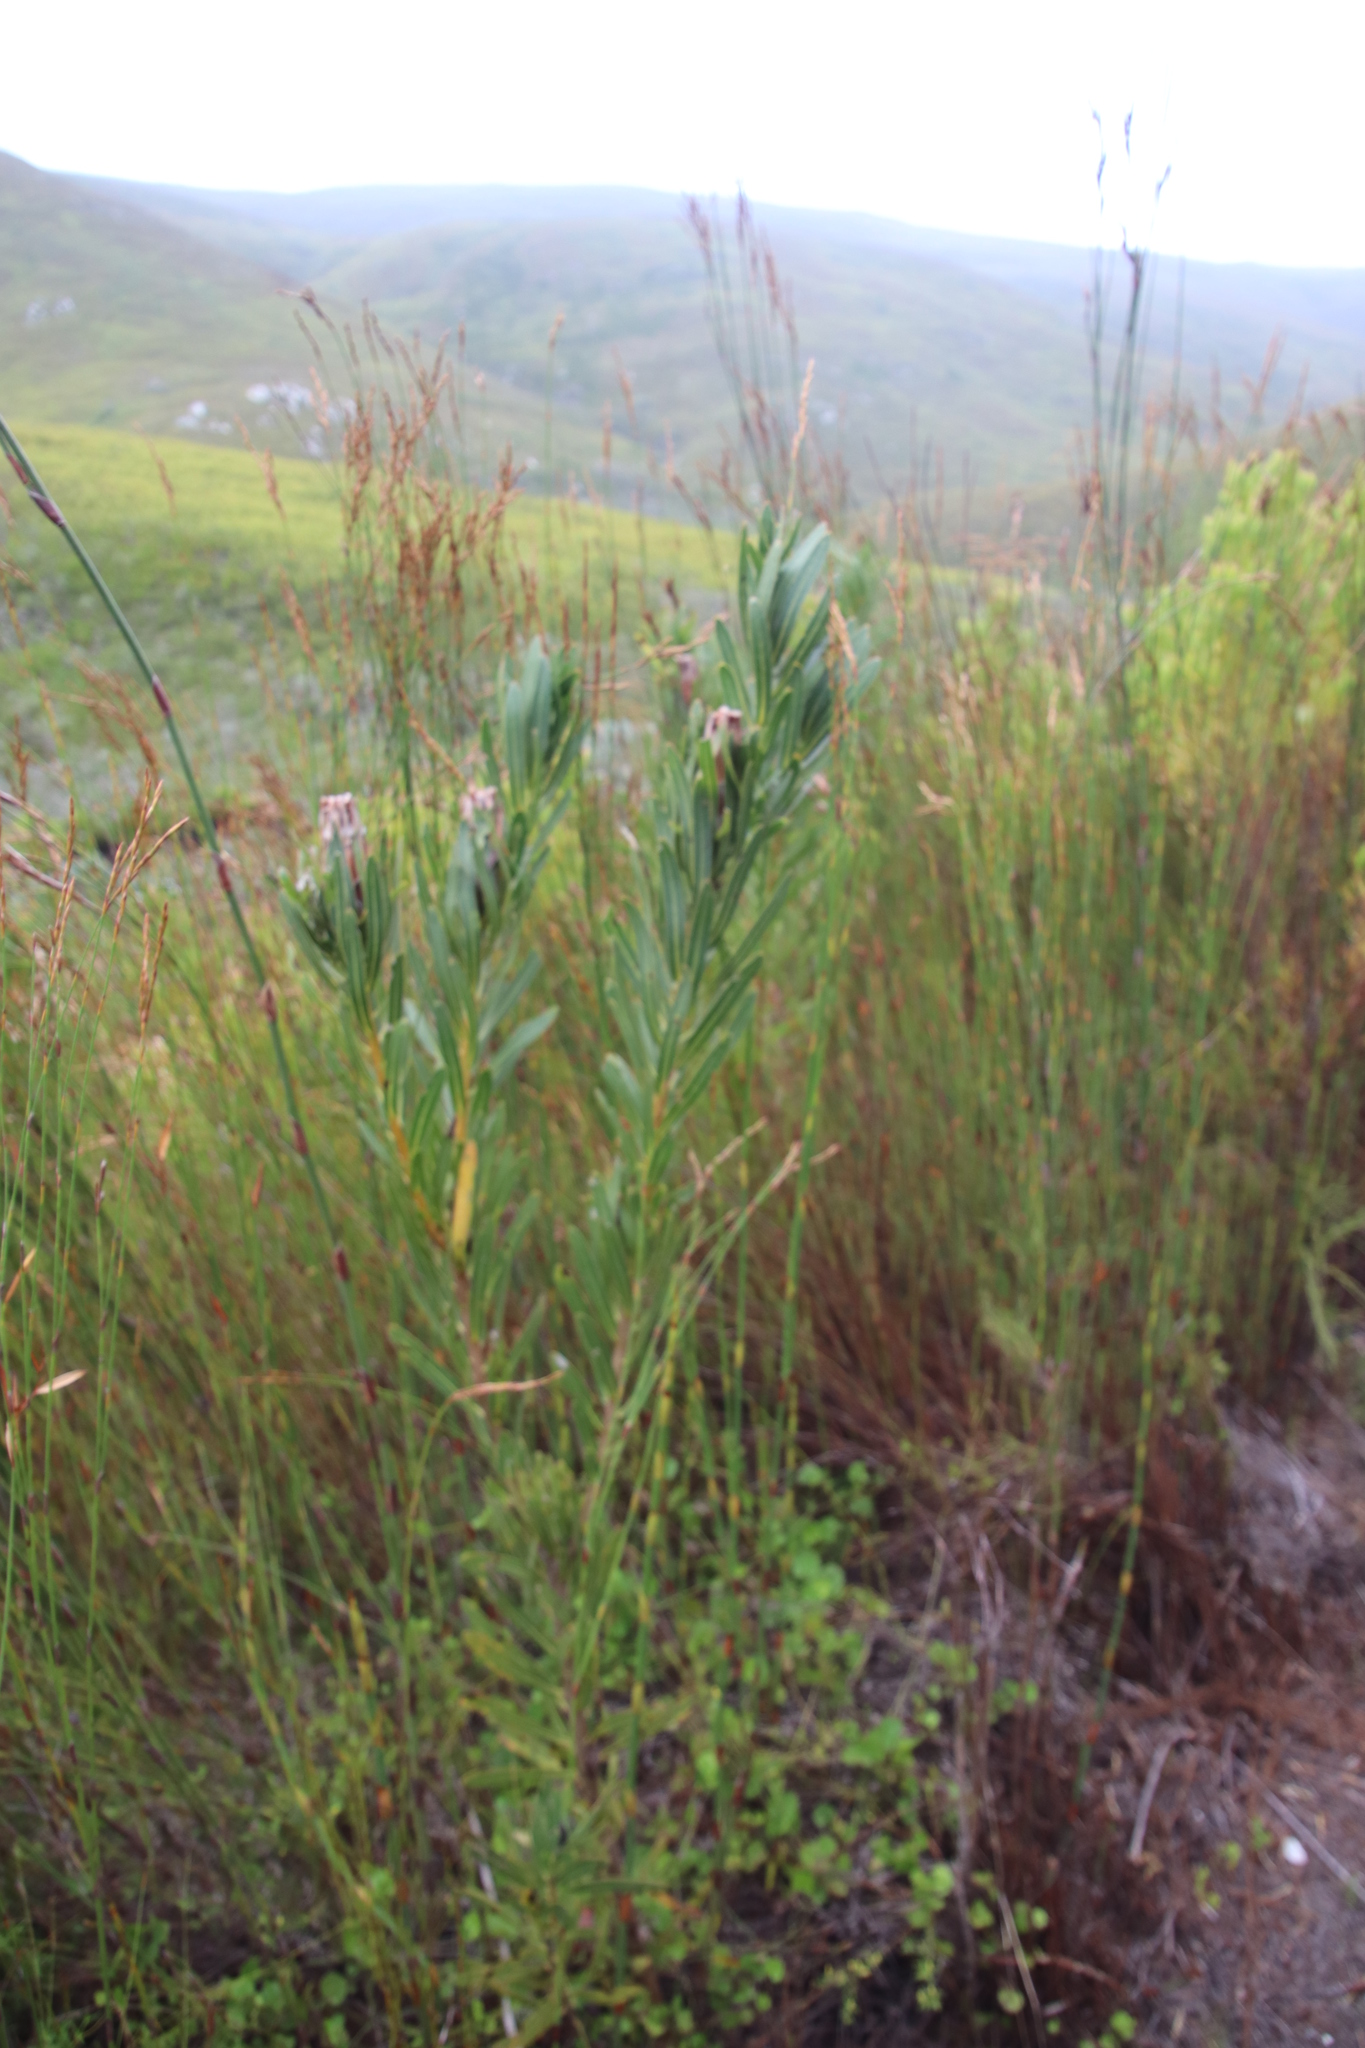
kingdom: Plantae
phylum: Tracheophyta
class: Magnoliopsida
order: Proteales
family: Proteaceae
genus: Protea
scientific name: Protea lepidocarpodendron
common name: Black-bearded protea
